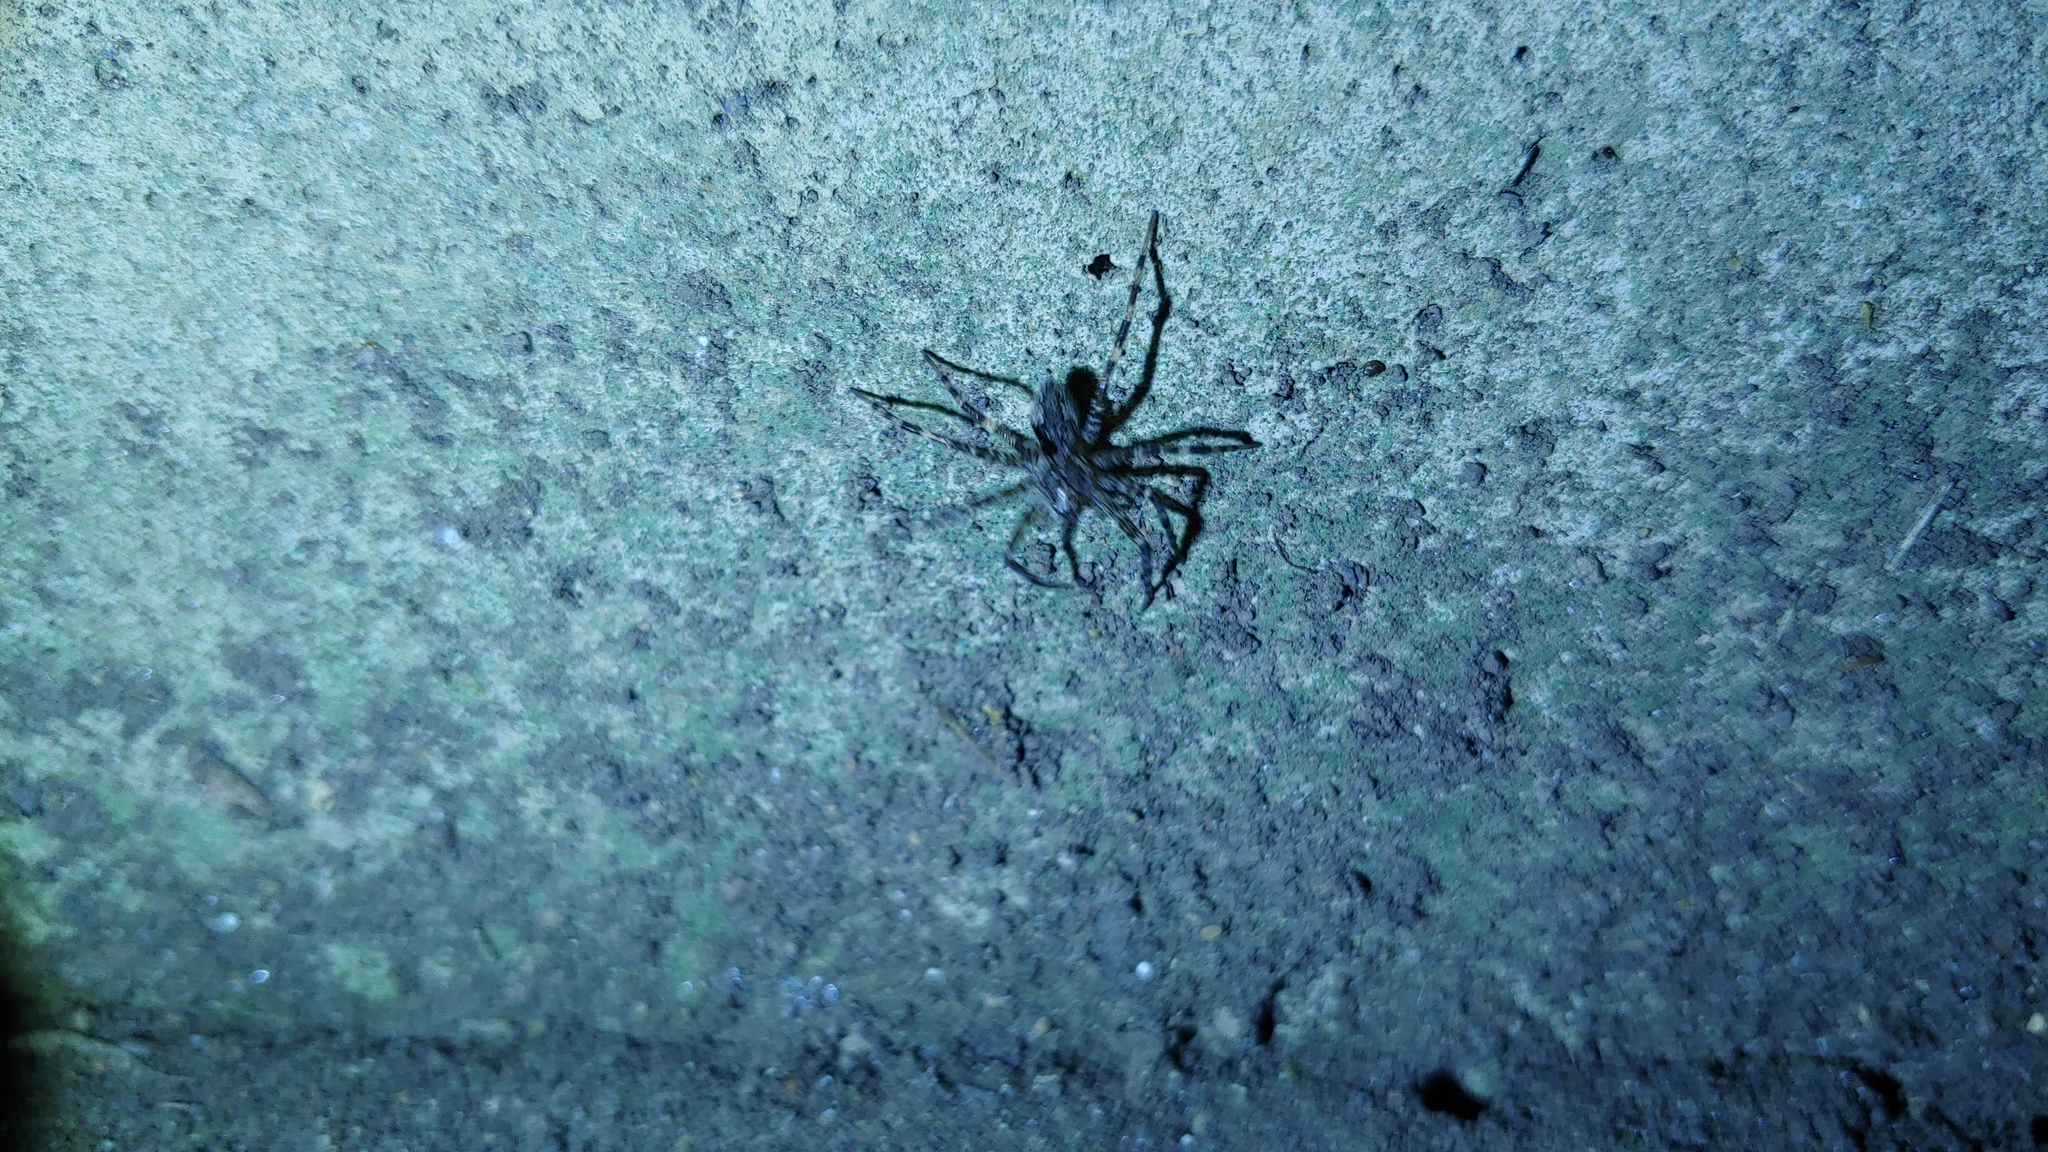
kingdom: Animalia
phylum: Arthropoda
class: Arachnida
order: Araneae
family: Pisauridae
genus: Dolomedes
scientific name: Dolomedes tenebrosus
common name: Dark fishing spider
